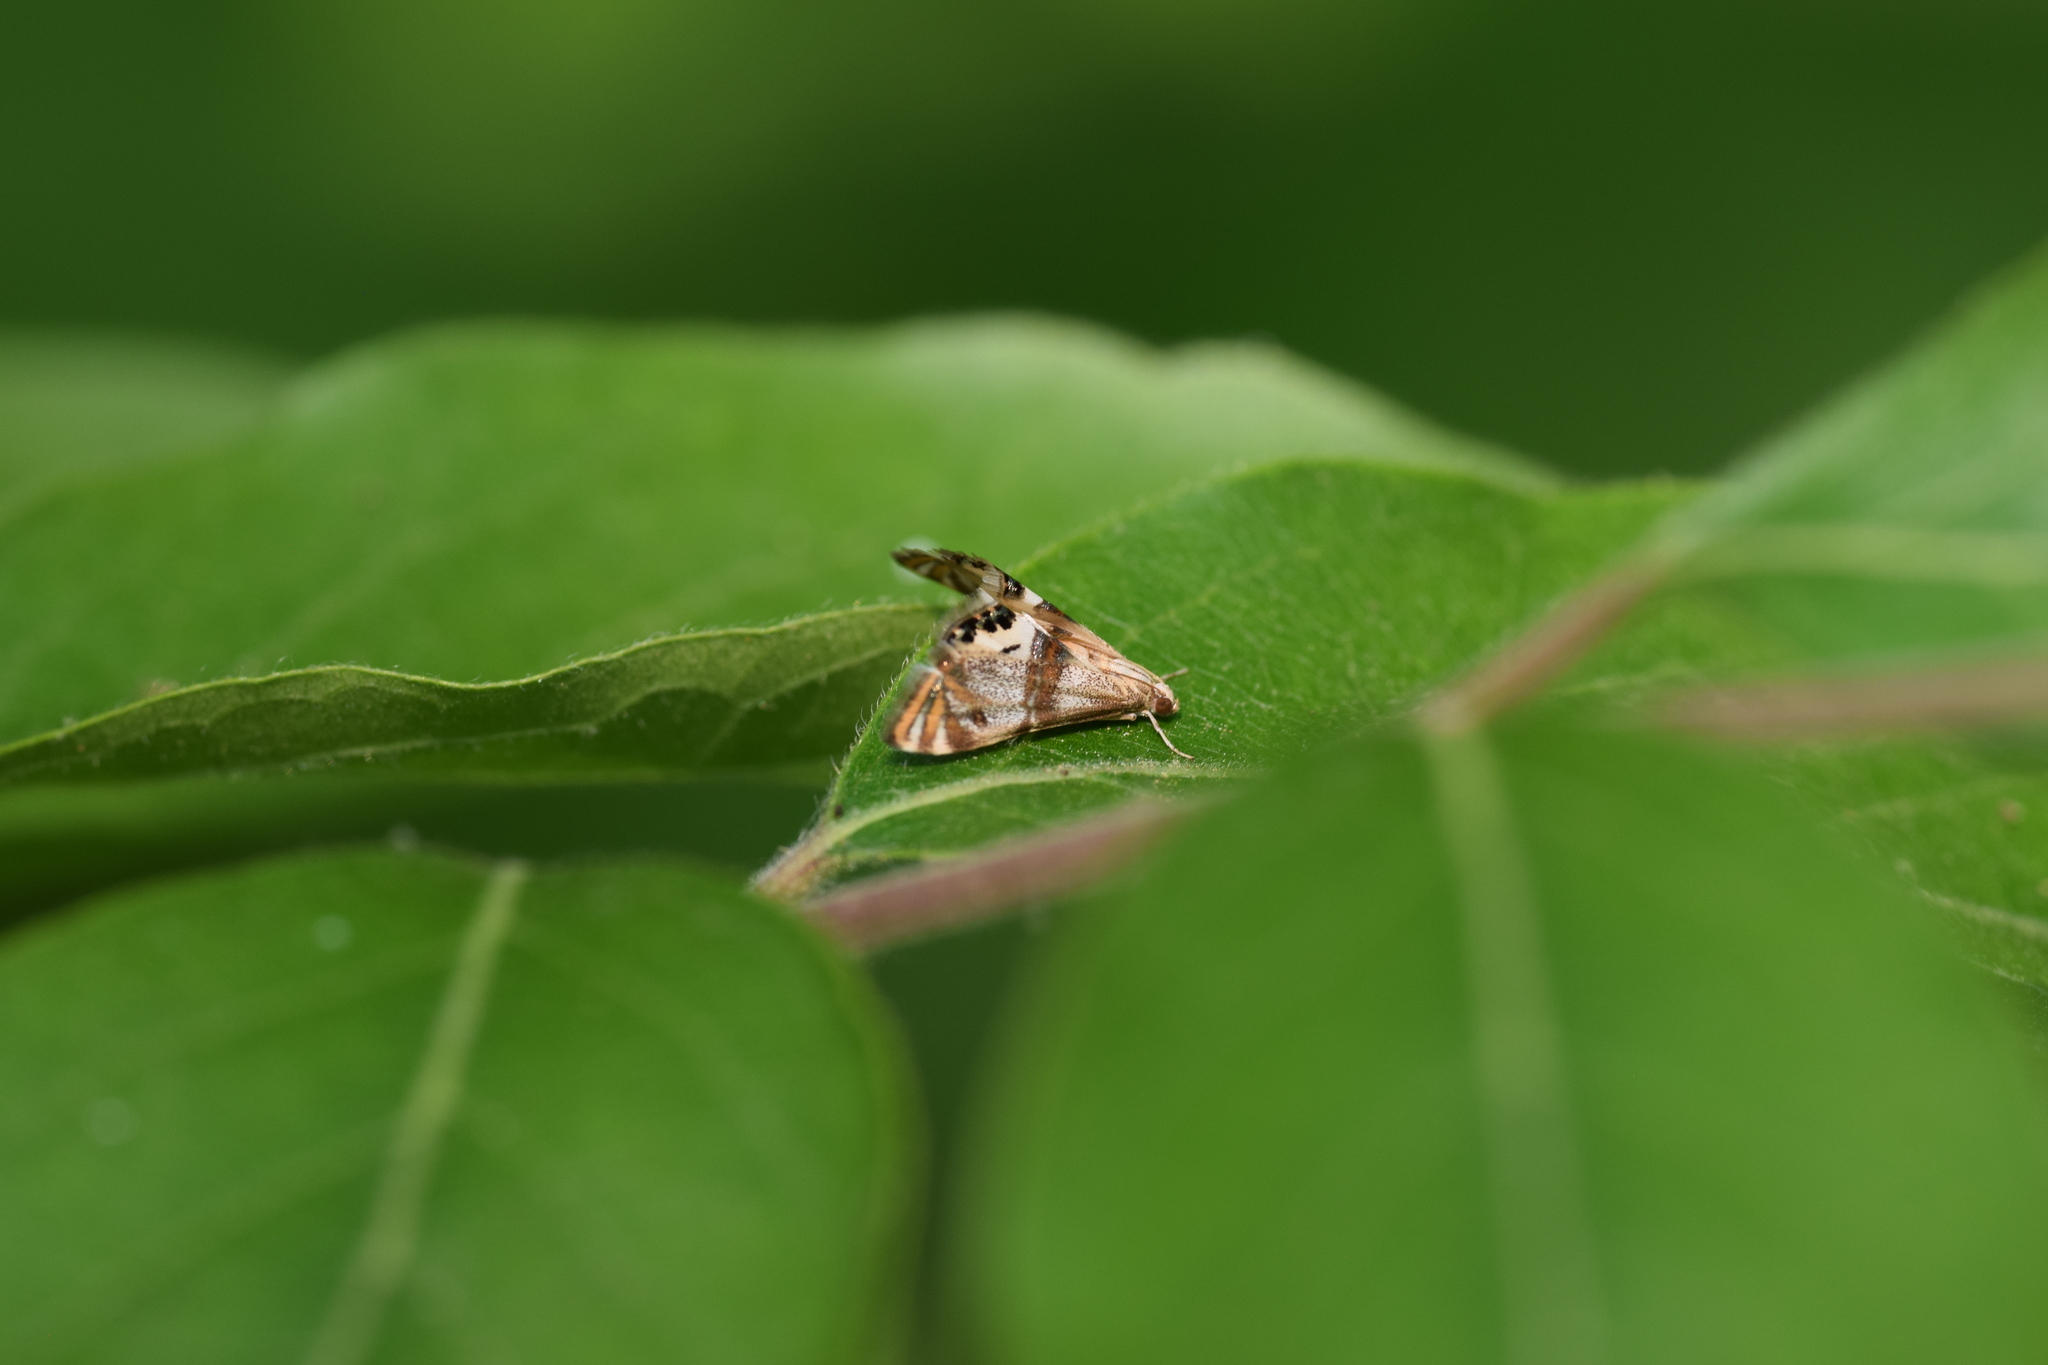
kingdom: Animalia
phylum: Arthropoda
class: Insecta
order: Lepidoptera
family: Crambidae
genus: Petrophila
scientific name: Petrophila bifascialis
